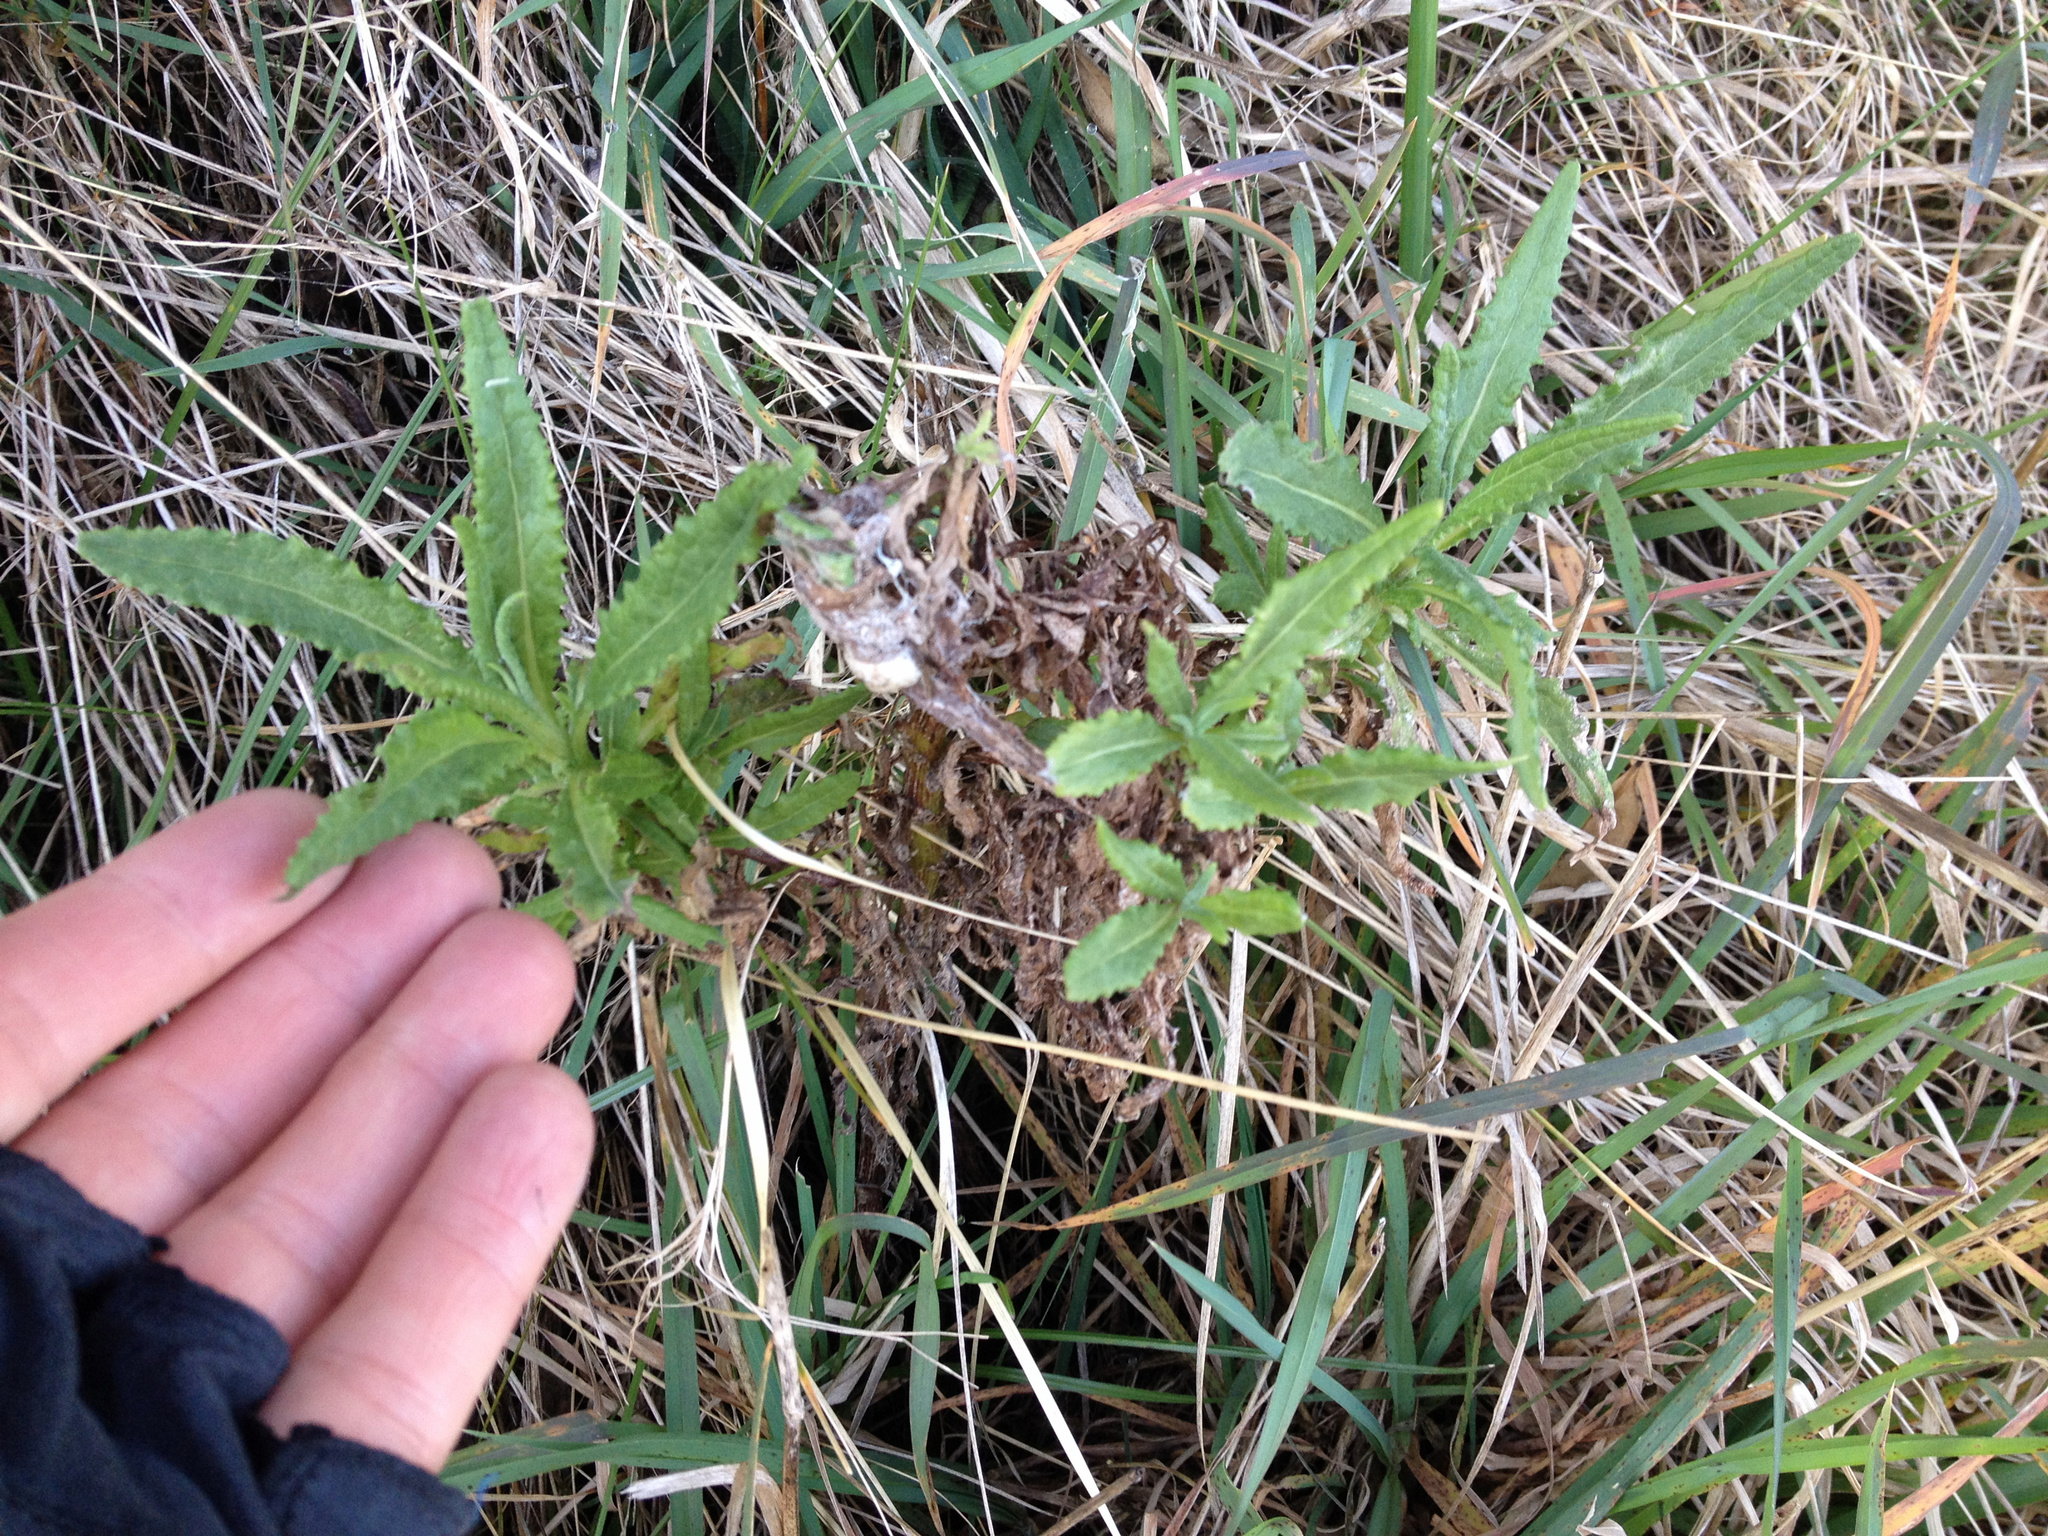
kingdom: Plantae
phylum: Tracheophyta
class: Magnoliopsida
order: Asterales
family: Asteraceae
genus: Senecio
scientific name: Senecio minimus
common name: Toothed fireweed
